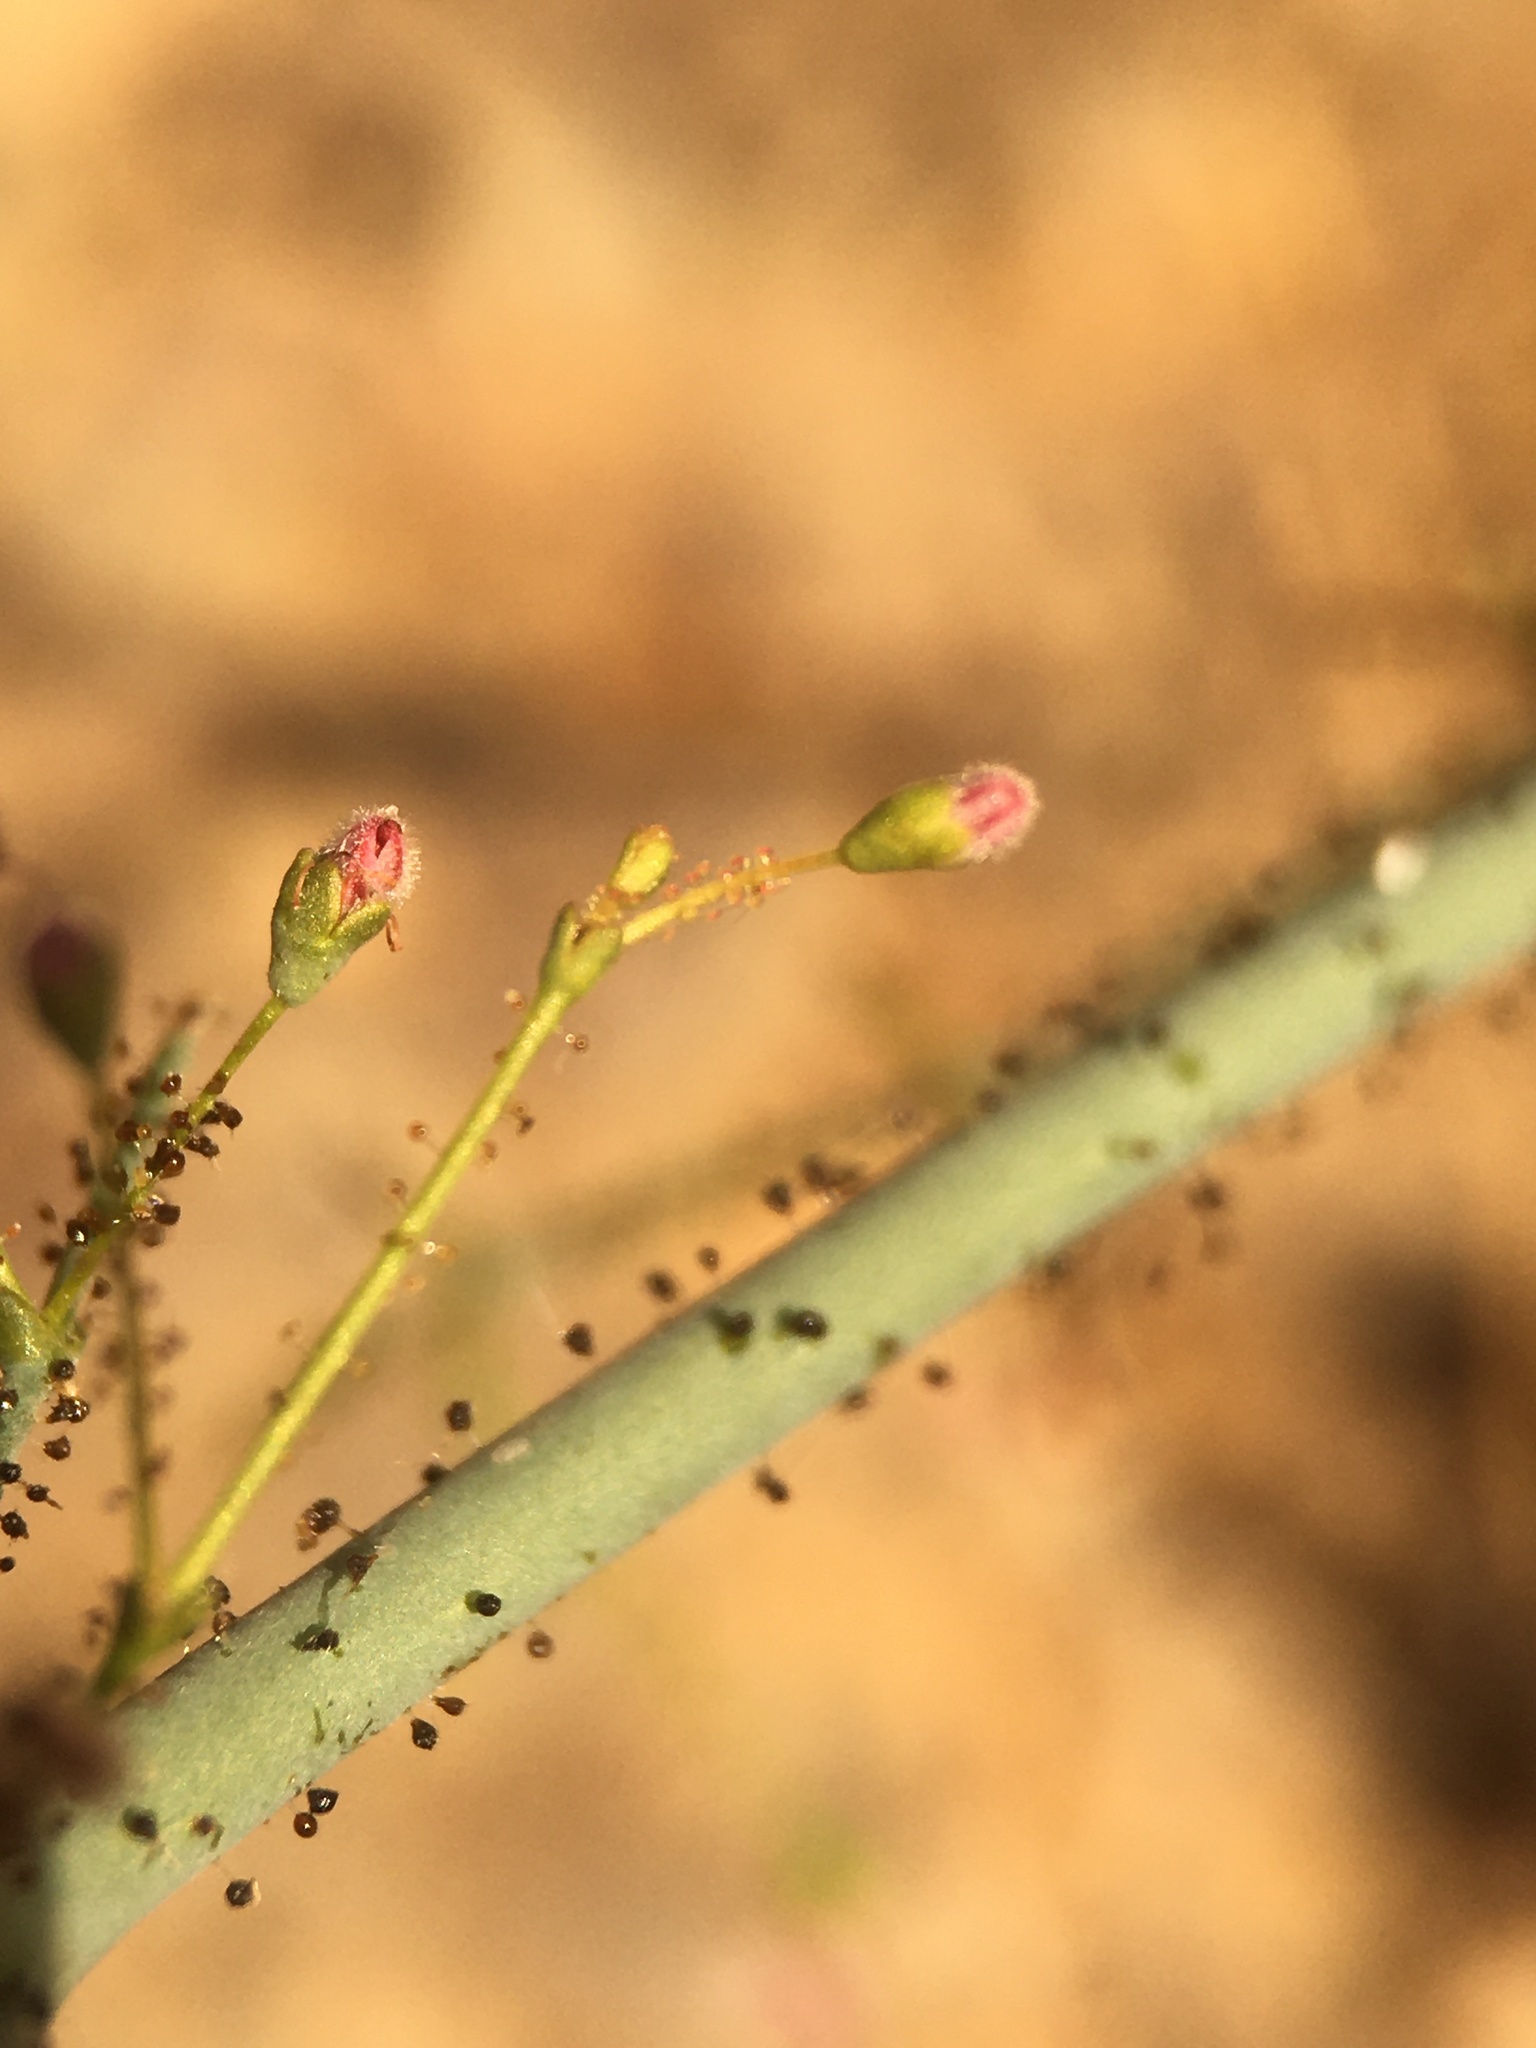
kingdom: Plantae
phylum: Tracheophyta
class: Magnoliopsida
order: Caryophyllales
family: Polygonaceae
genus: Eriogonum
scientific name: Eriogonum glandulosum
